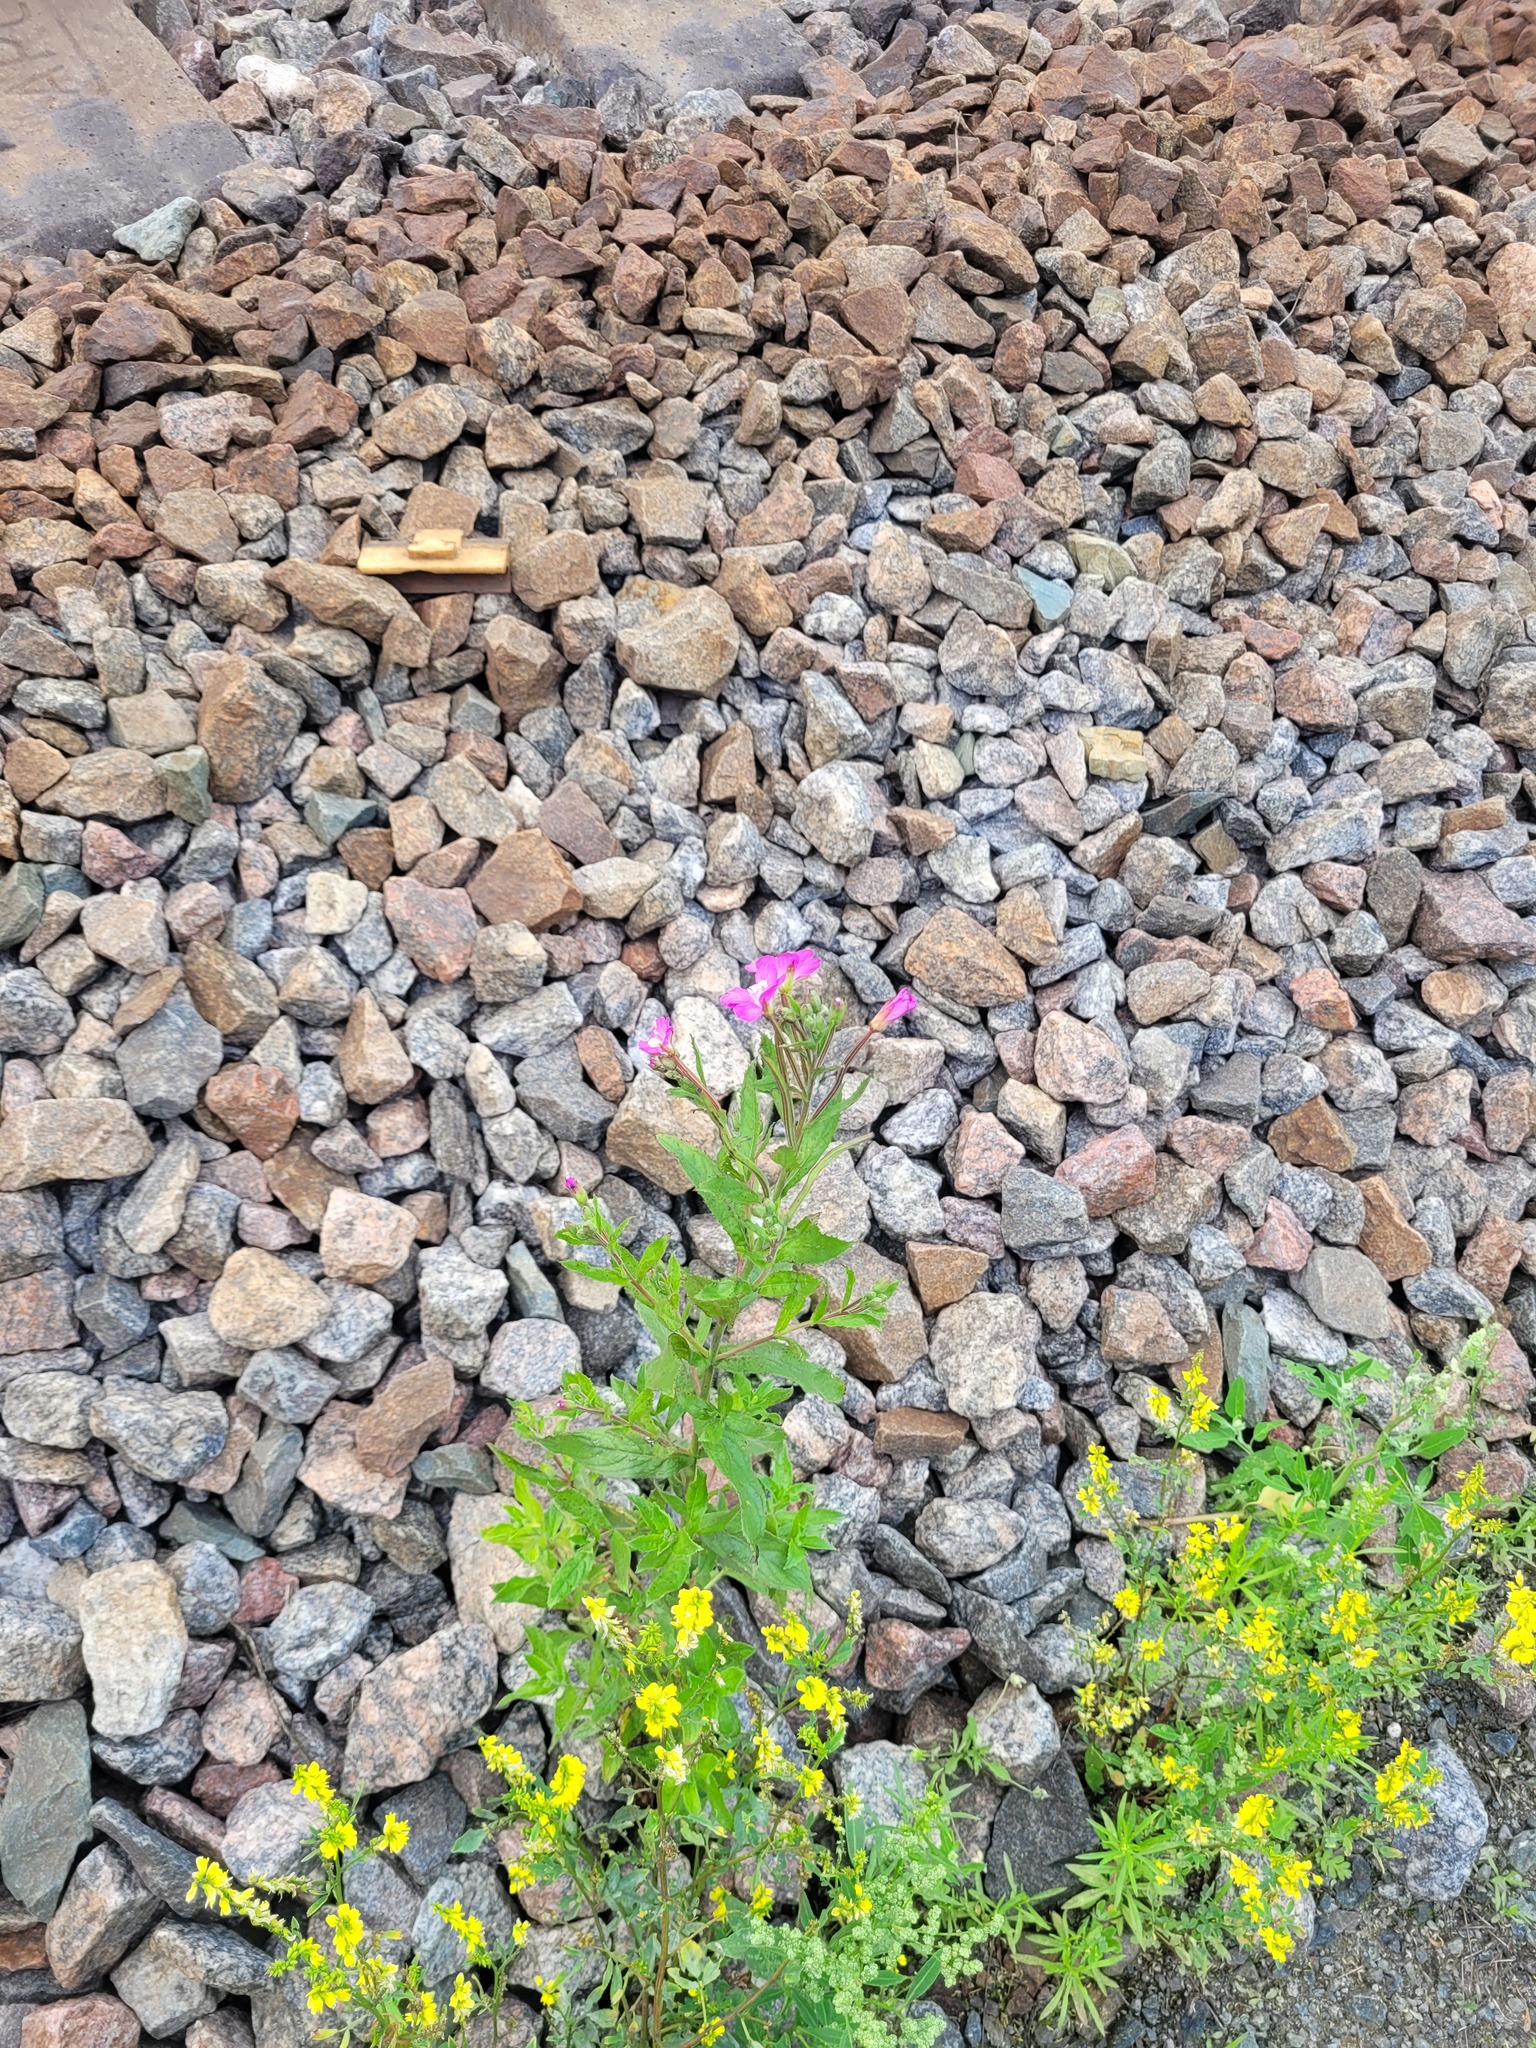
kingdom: Plantae
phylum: Tracheophyta
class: Magnoliopsida
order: Myrtales
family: Onagraceae
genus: Epilobium
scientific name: Epilobium hirsutum
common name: Great willowherb
